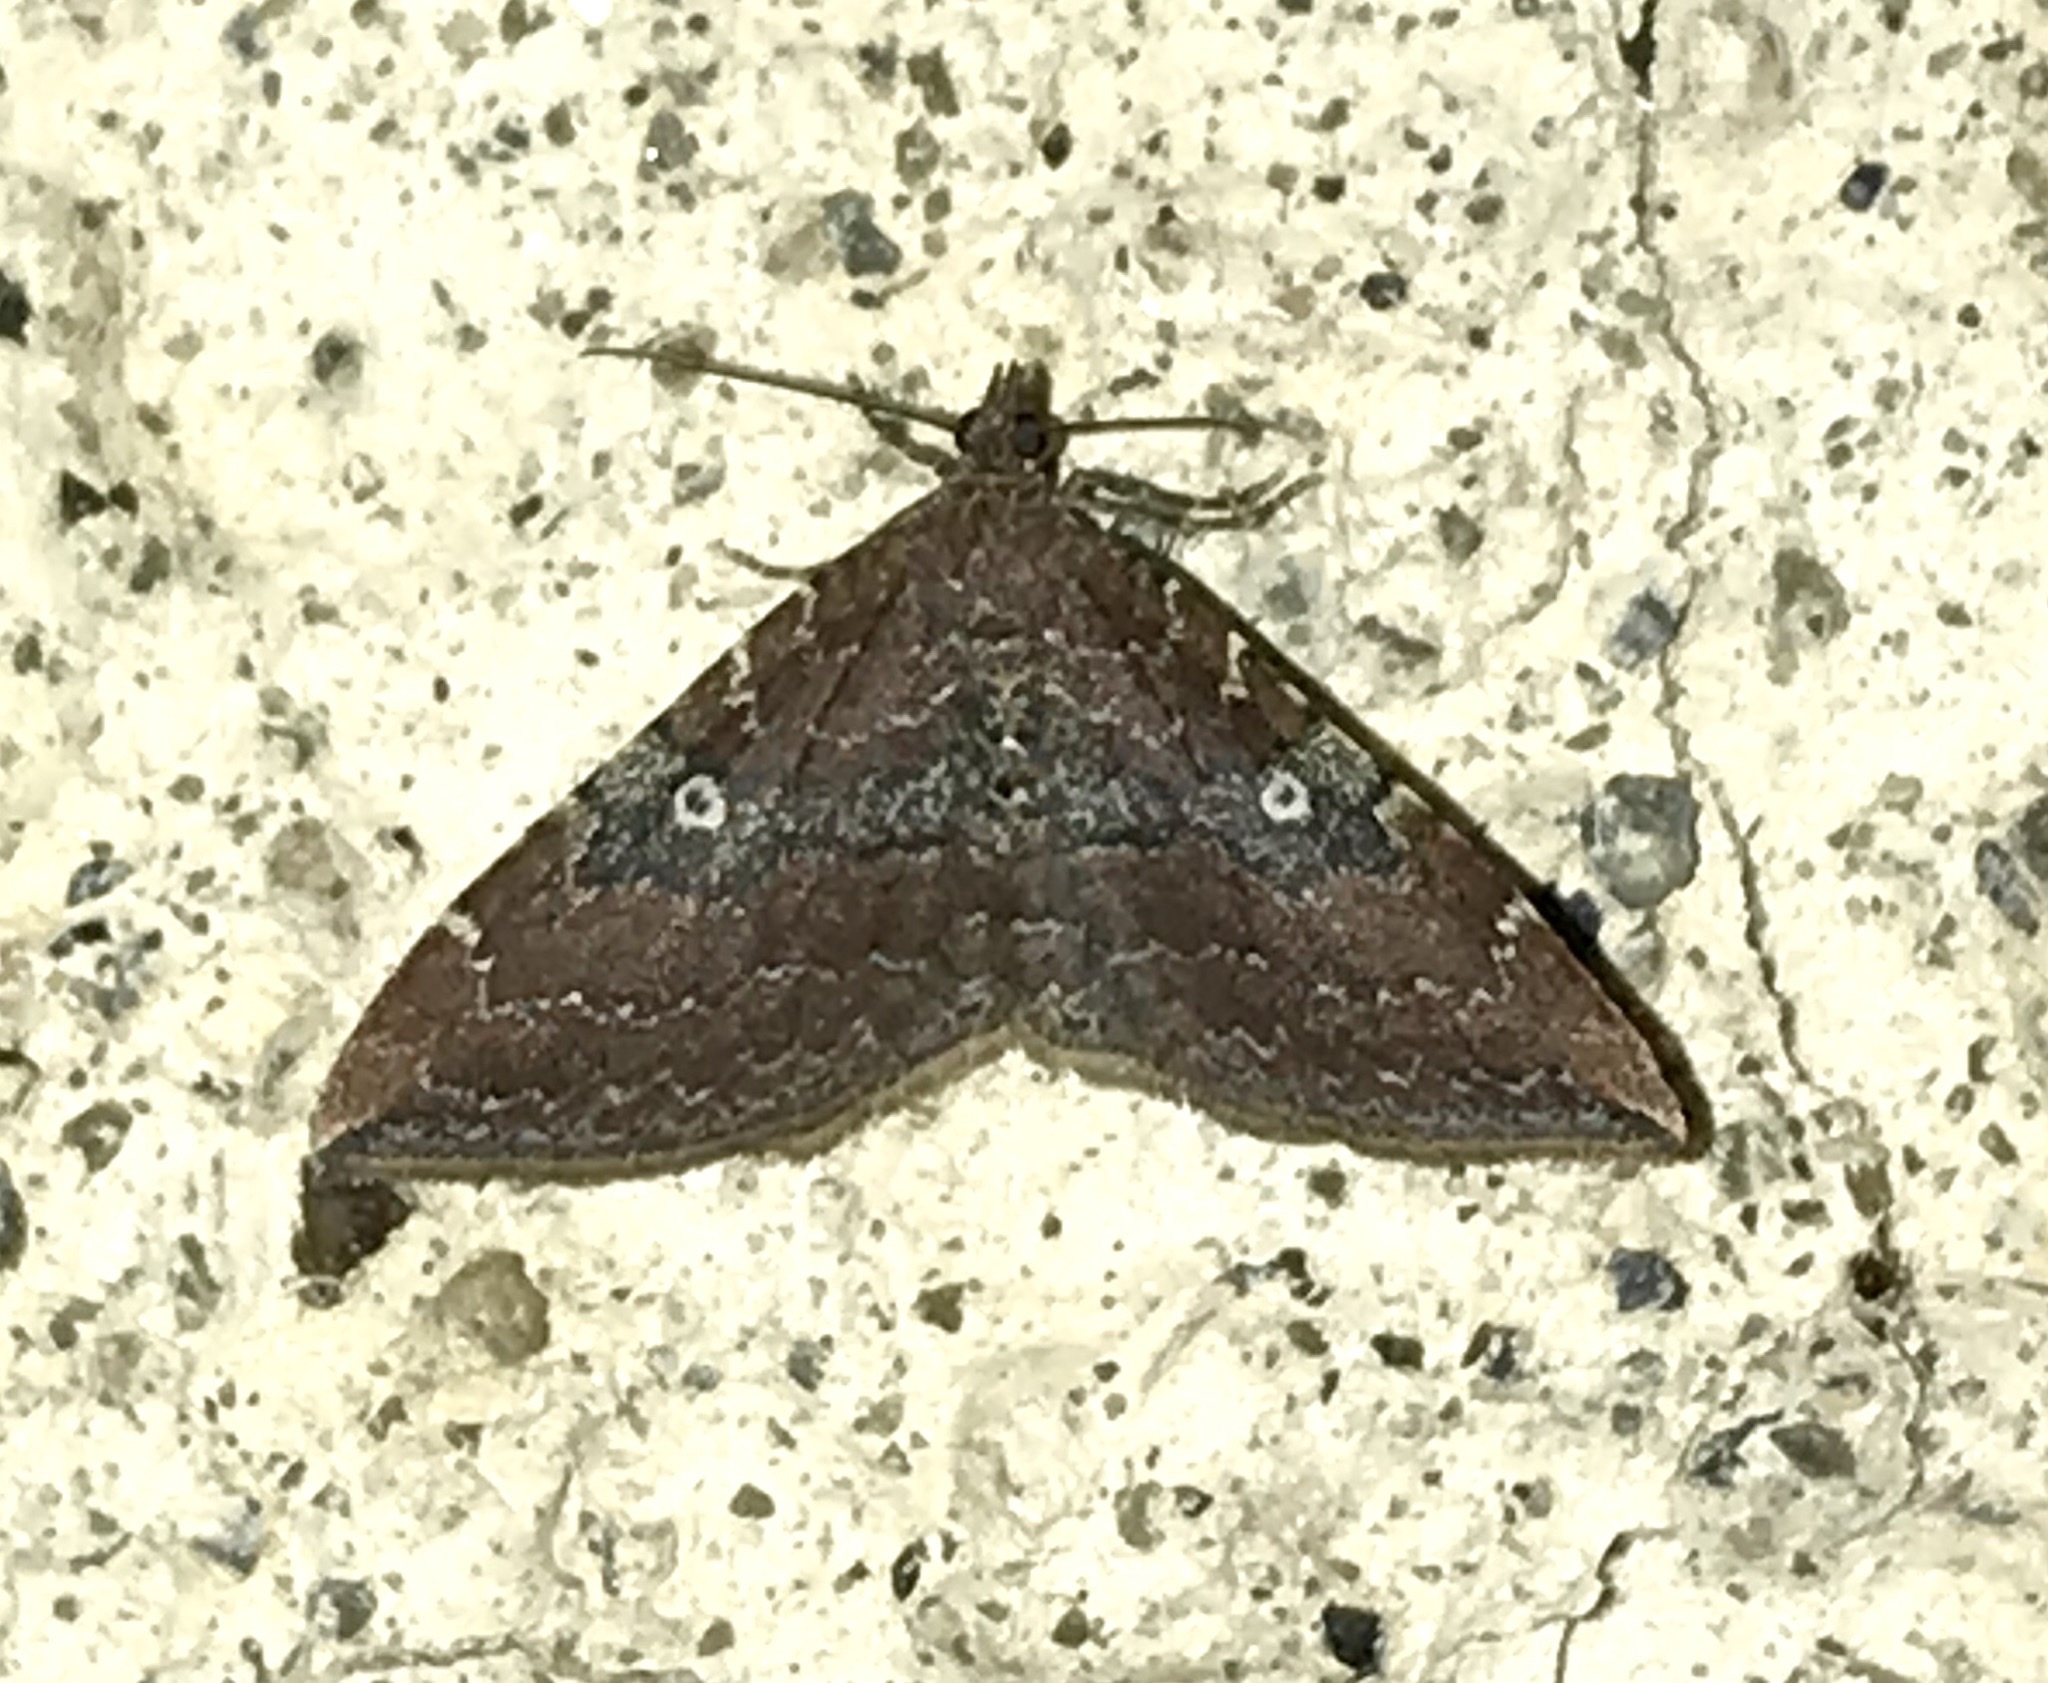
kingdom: Animalia
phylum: Arthropoda
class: Insecta
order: Lepidoptera
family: Geometridae
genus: Orthonama
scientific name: Orthonama obstipata
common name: The gem
